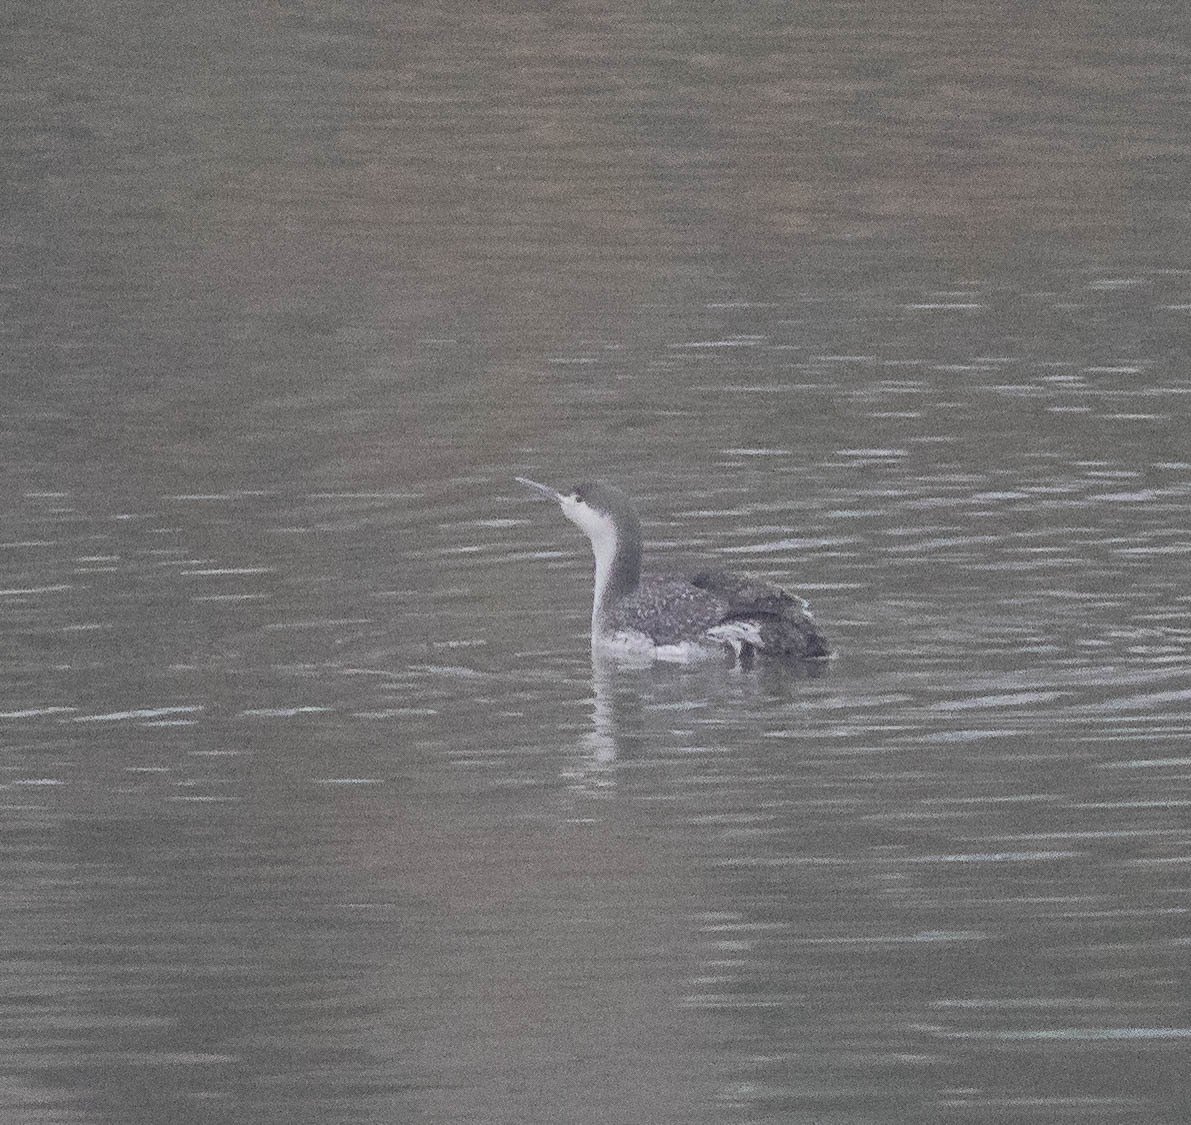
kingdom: Animalia
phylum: Chordata
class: Aves
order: Gaviiformes
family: Gaviidae
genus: Gavia
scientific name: Gavia stellata
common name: Red-throated loon
